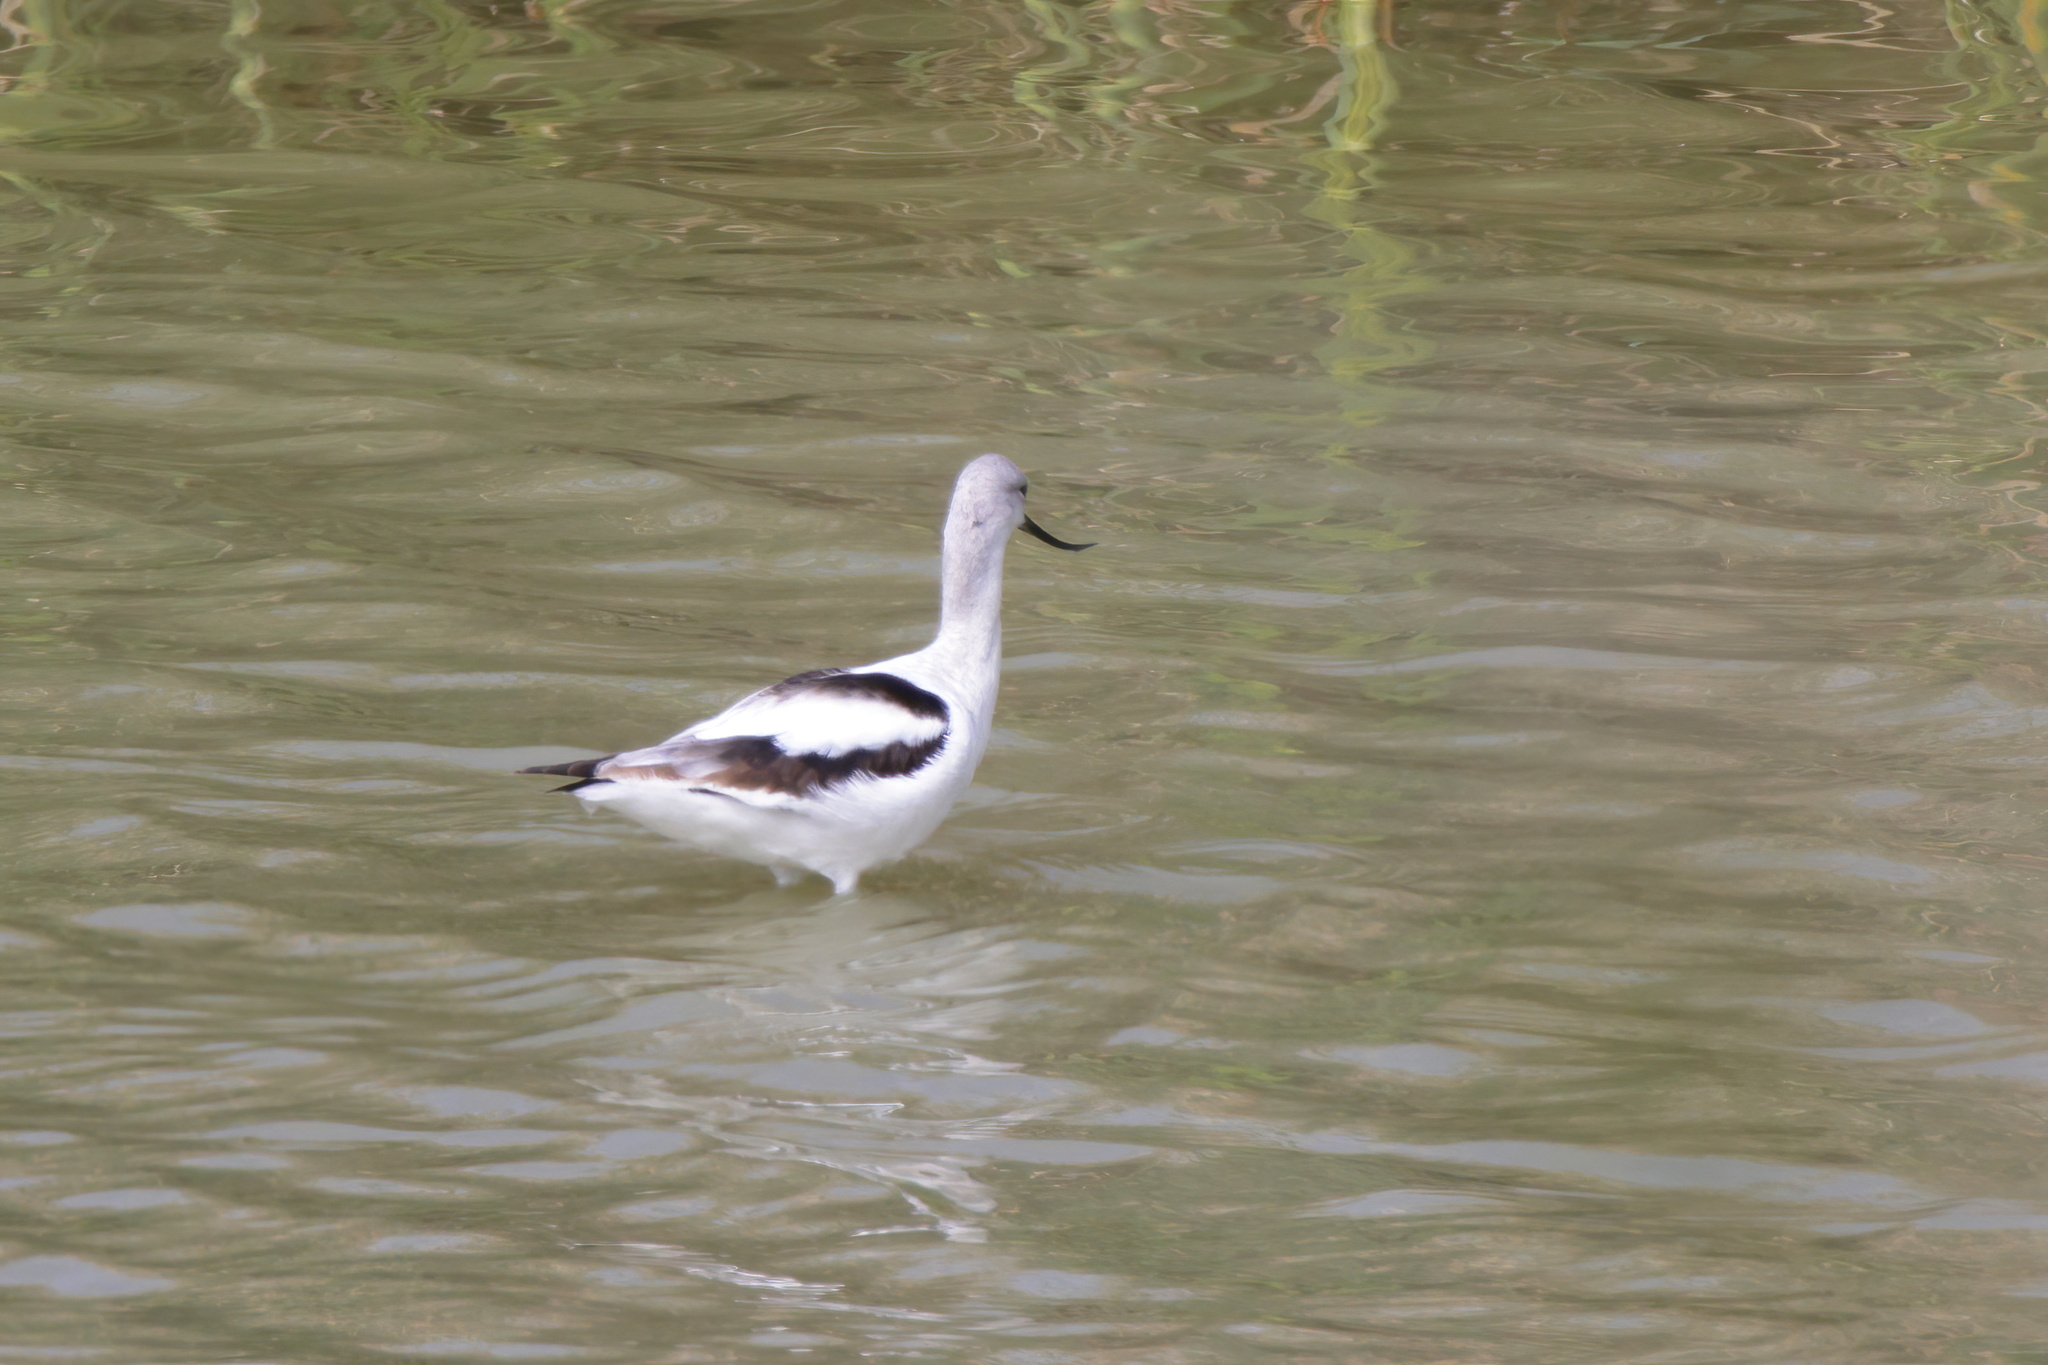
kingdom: Animalia
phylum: Chordata
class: Aves
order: Charadriiformes
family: Recurvirostridae
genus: Recurvirostra
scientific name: Recurvirostra americana
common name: American avocet
